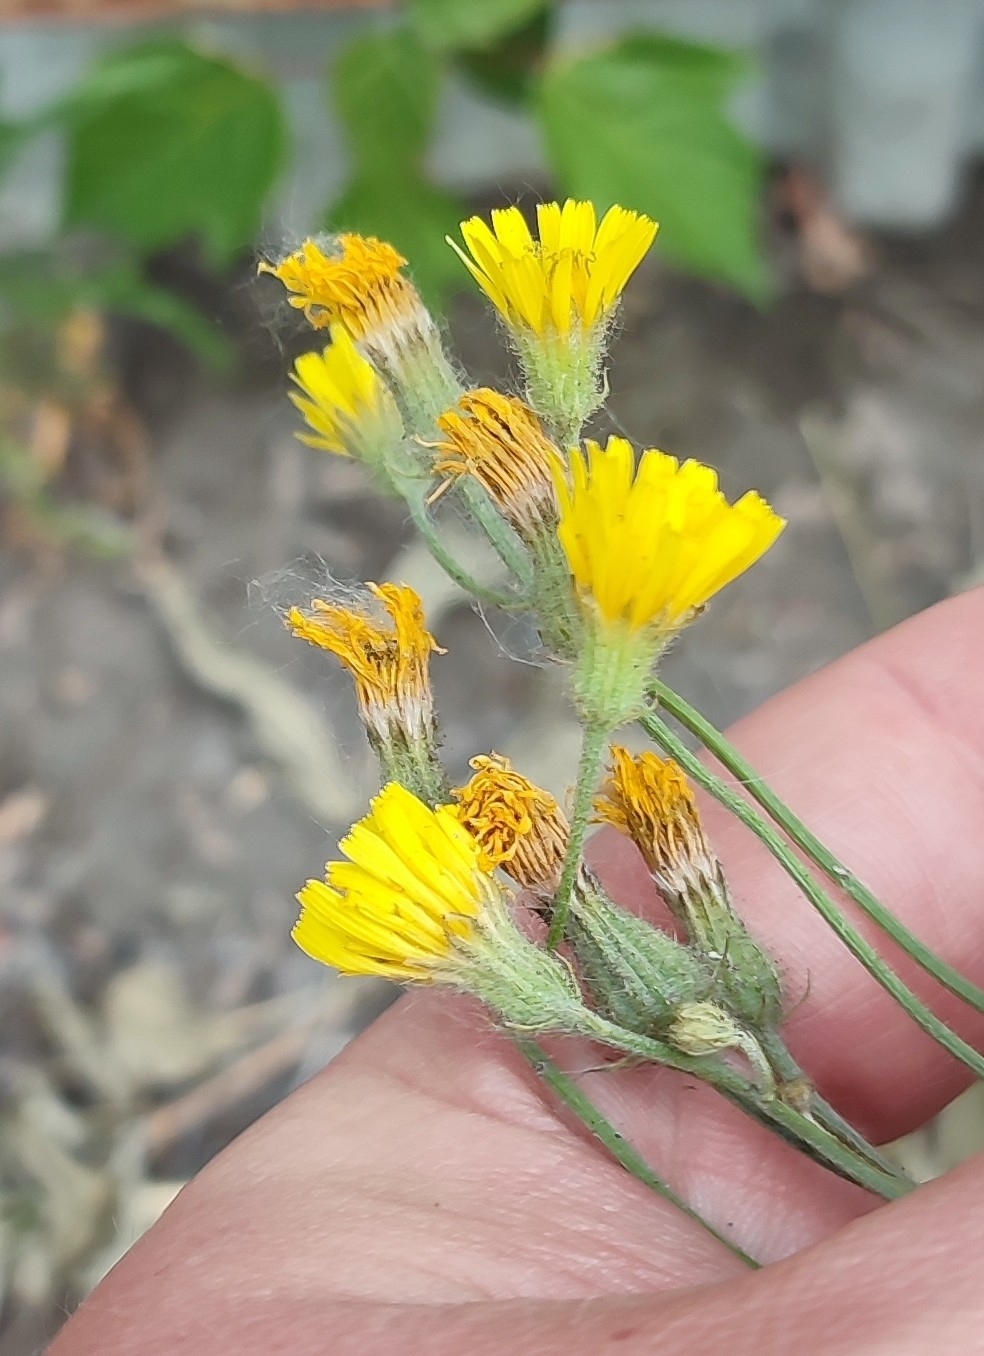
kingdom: Plantae
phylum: Tracheophyta
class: Magnoliopsida
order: Asterales
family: Asteraceae
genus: Crepis
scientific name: Crepis tectorum
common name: Narrow-leaved hawk's-beard
